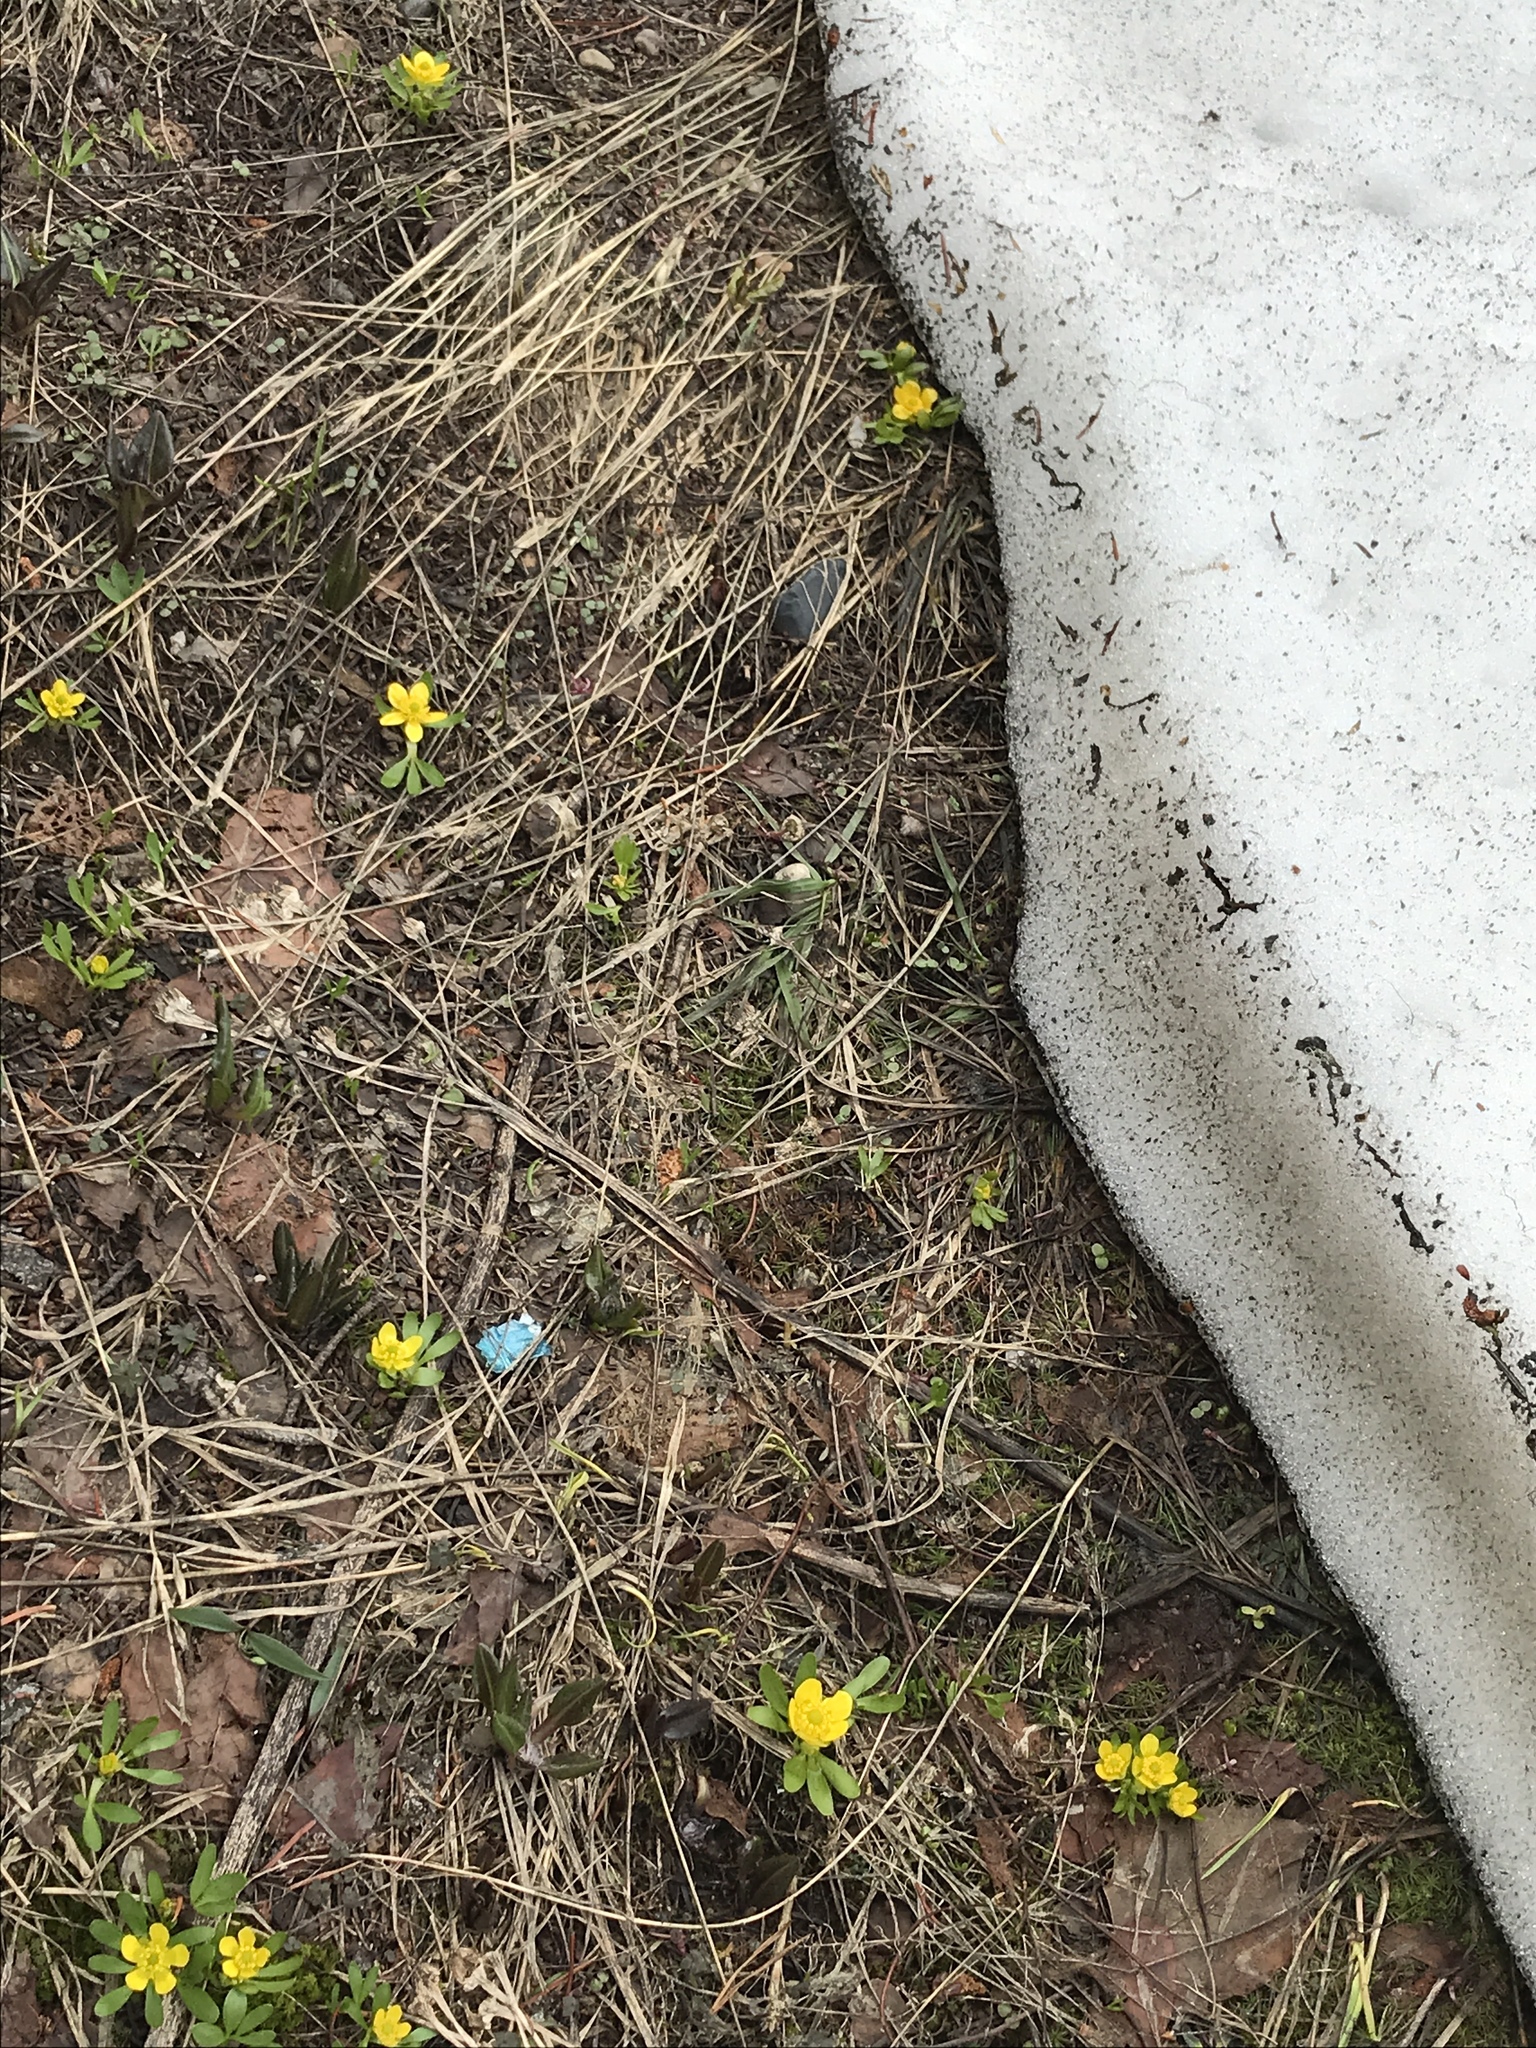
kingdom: Plantae
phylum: Tracheophyta
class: Magnoliopsida
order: Ranunculales
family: Ranunculaceae
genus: Ranunculus
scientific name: Ranunculus glaberrimus
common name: Sagebrush buttercup
